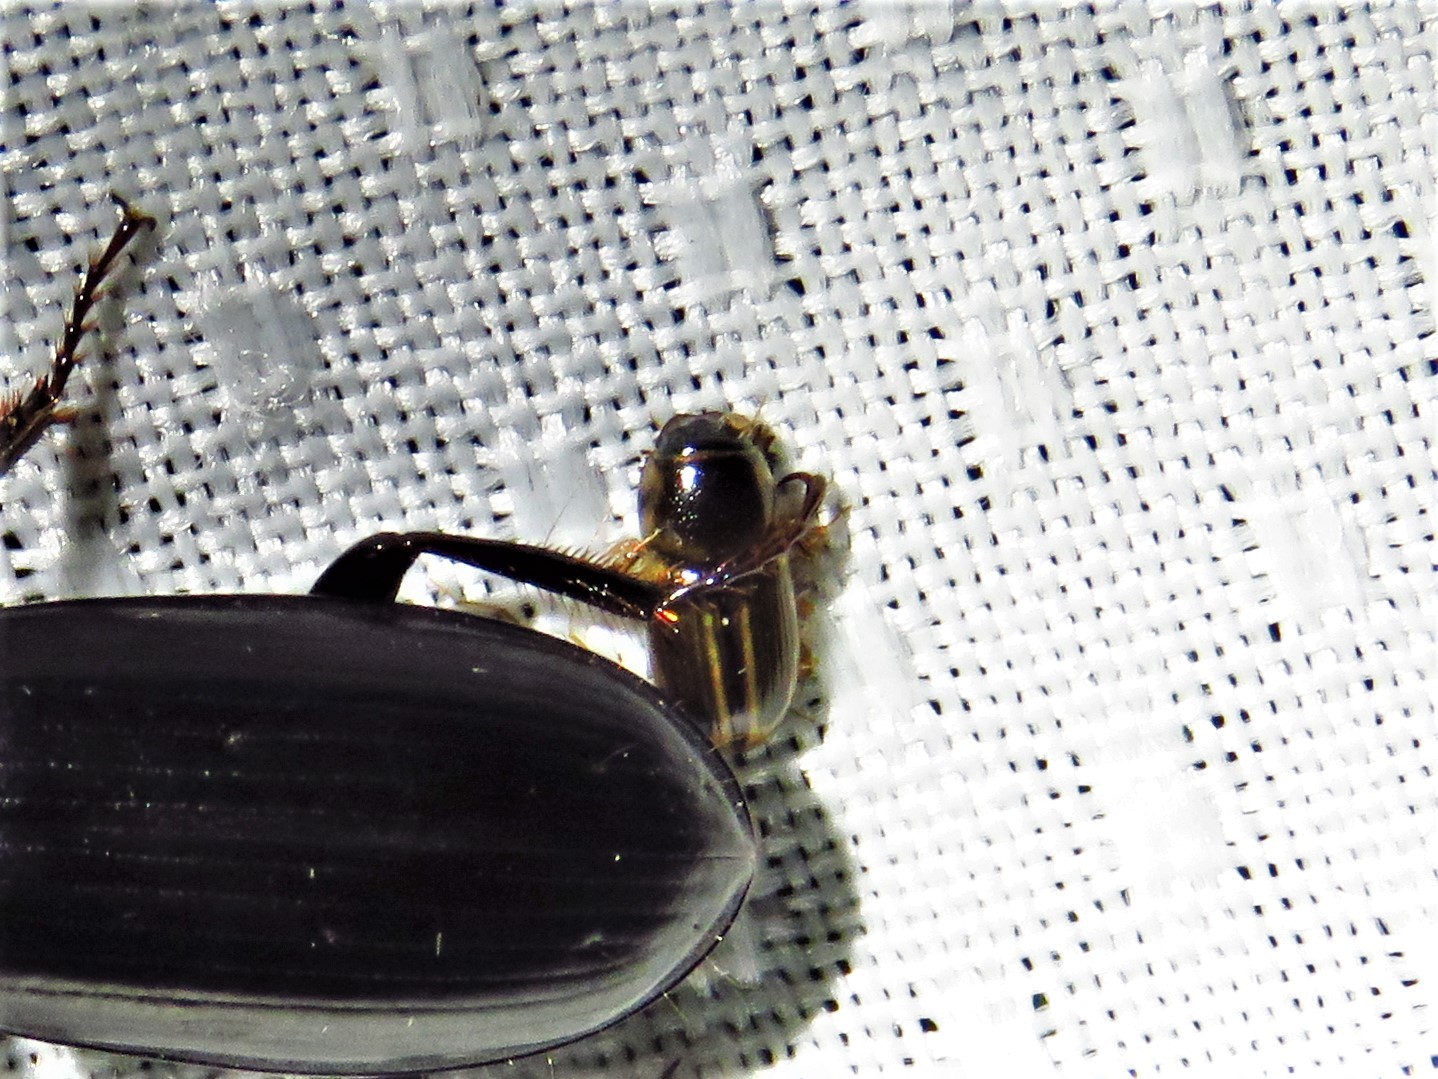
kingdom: Animalia
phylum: Arthropoda
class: Insecta
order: Coleoptera
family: Scarabaeidae
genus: Labarrus
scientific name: Labarrus lividus
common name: Scarab beetle
